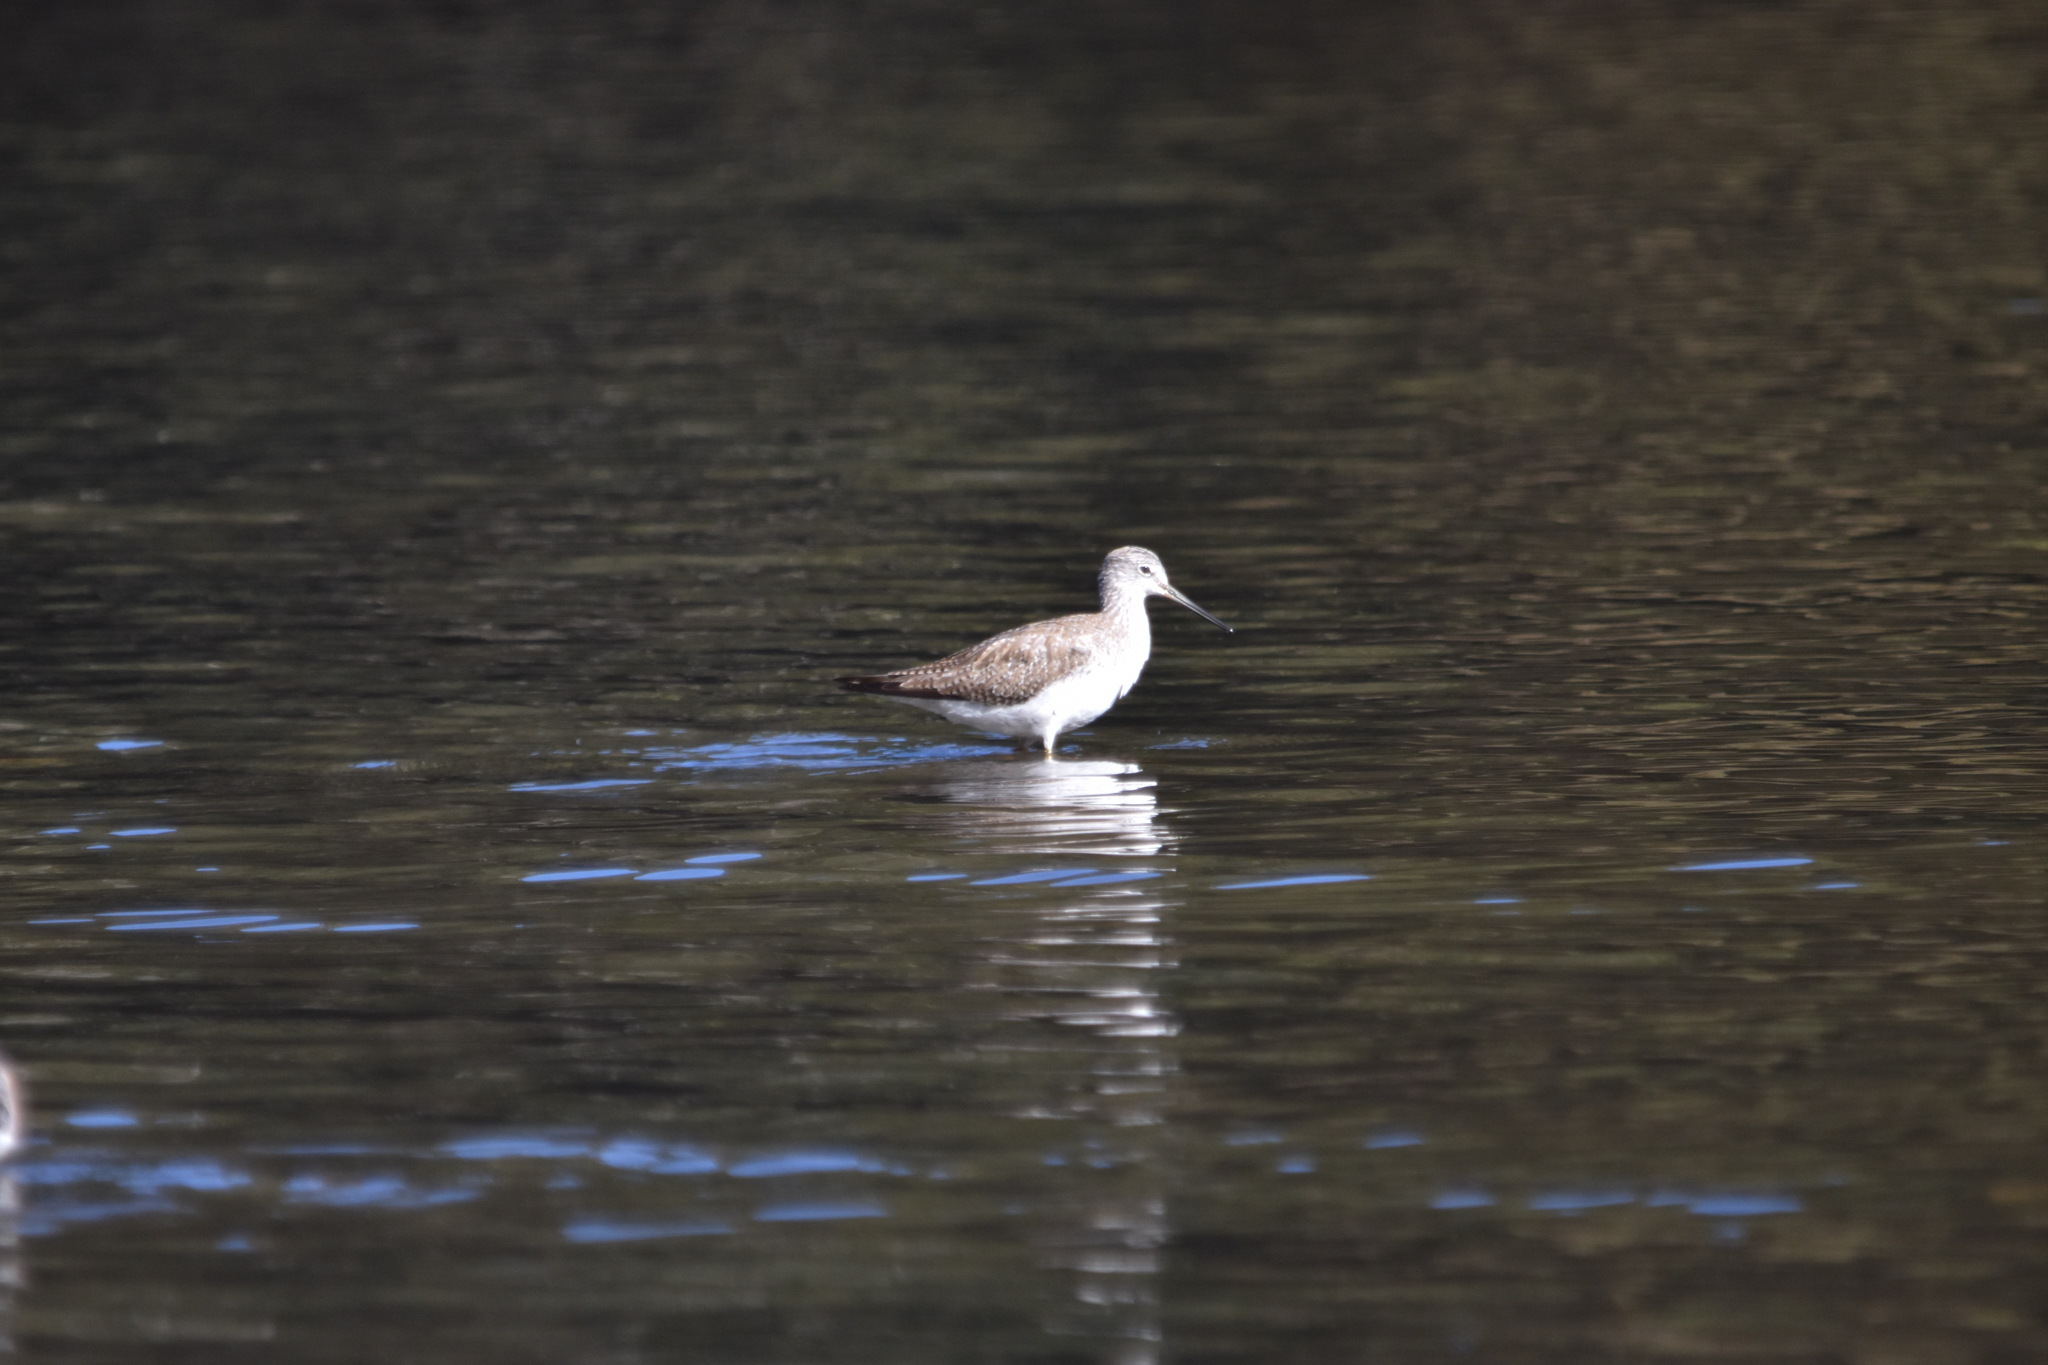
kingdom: Animalia
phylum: Chordata
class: Aves
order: Charadriiformes
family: Scolopacidae
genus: Tringa
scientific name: Tringa melanoleuca
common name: Greater yellowlegs
